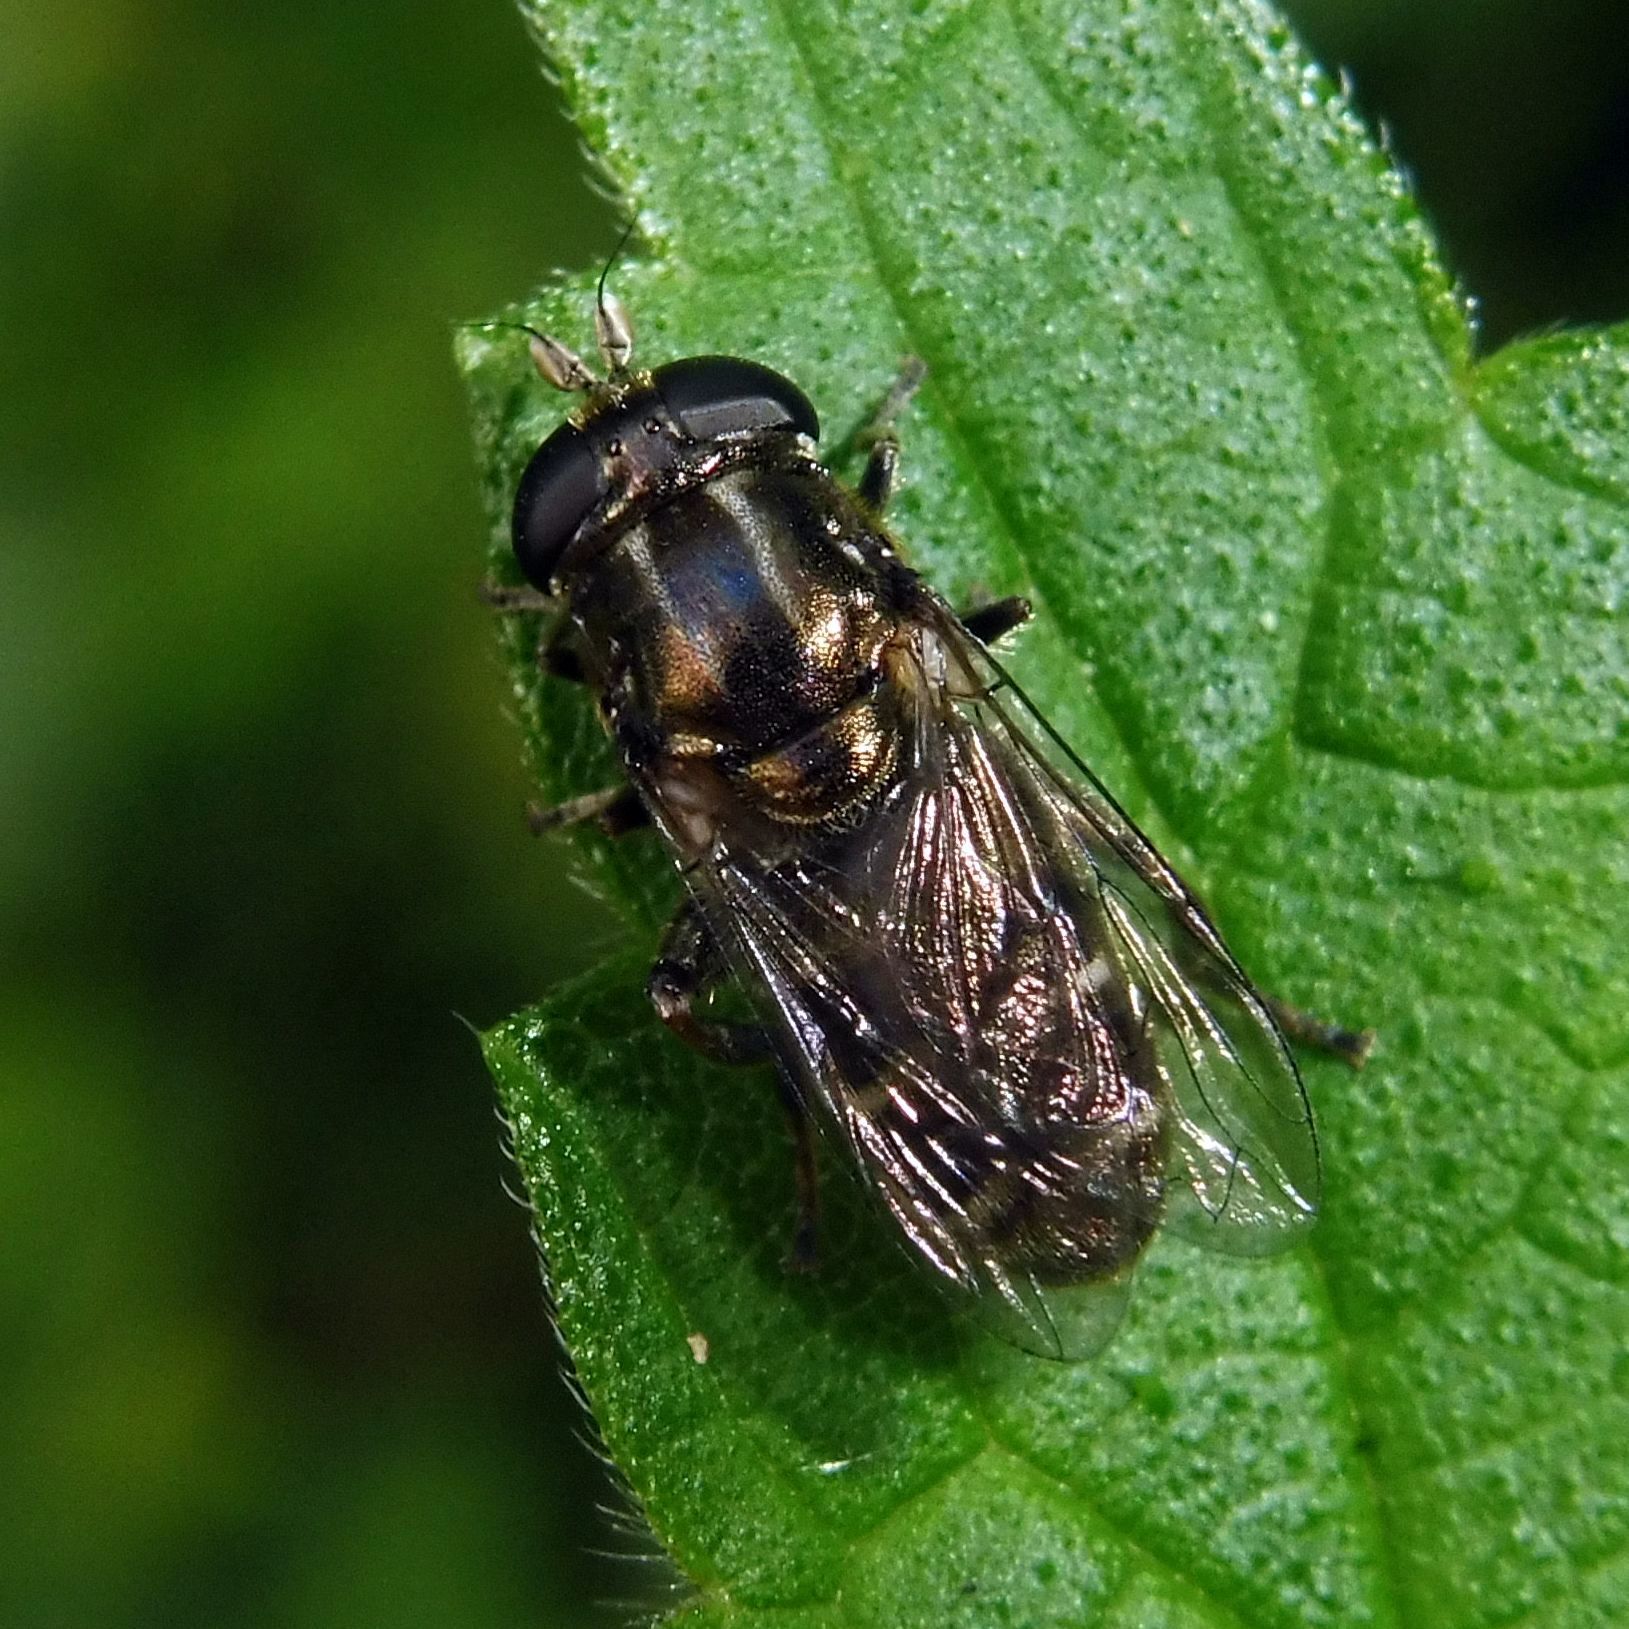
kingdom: Animalia
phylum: Arthropoda
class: Insecta
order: Diptera
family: Syrphidae
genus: Eumerus
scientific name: Eumerus
